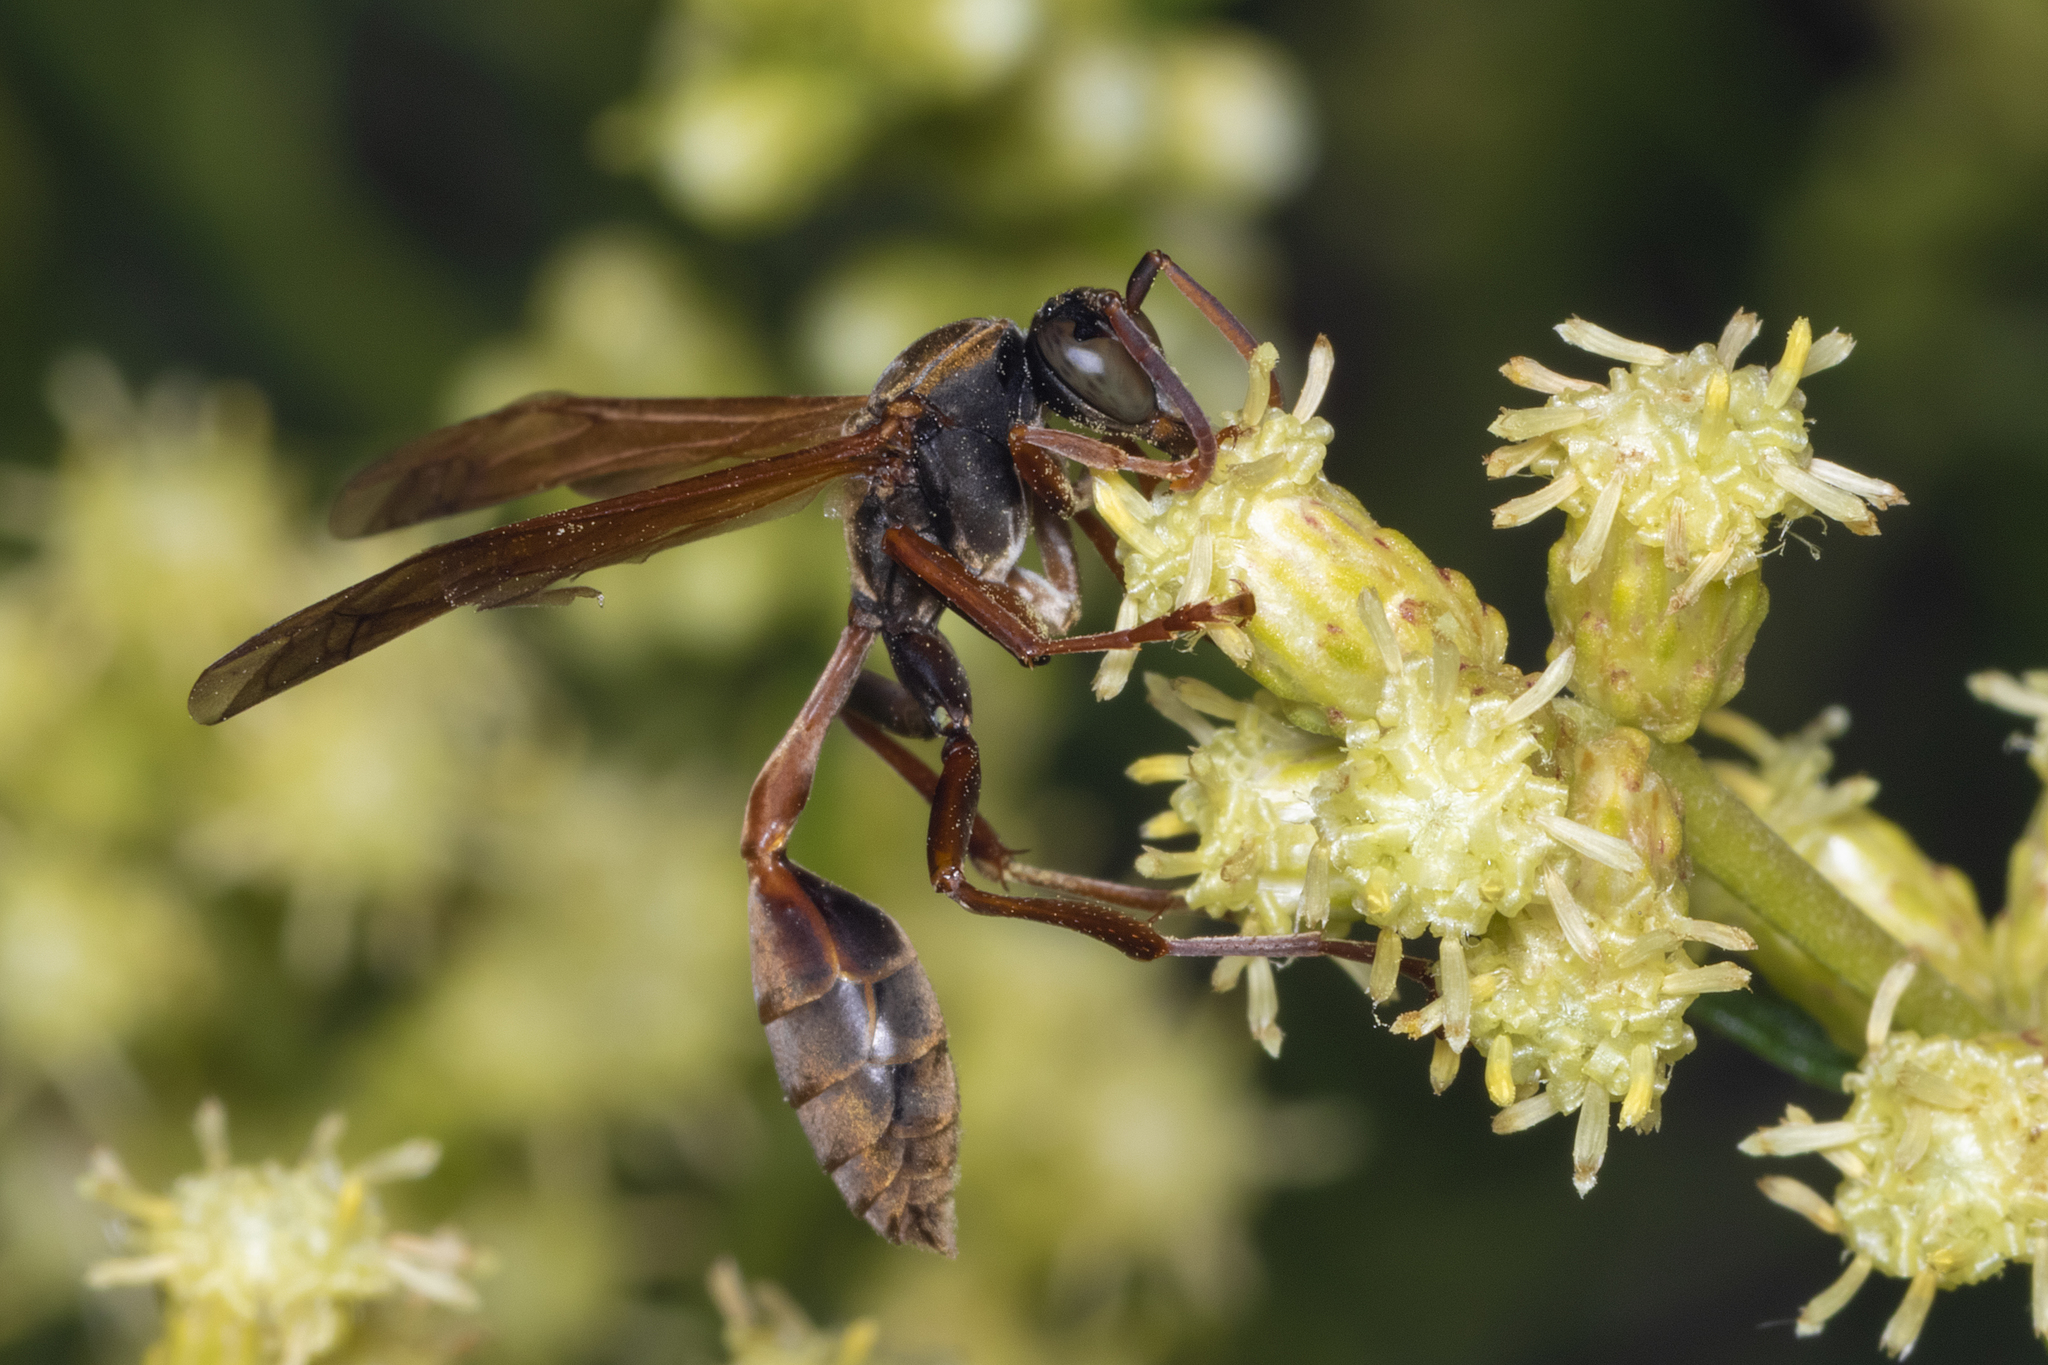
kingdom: Animalia
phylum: Arthropoda
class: Insecta
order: Hymenoptera
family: Vespidae
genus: Mischocyttarus
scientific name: Mischocyttarus drewseni
